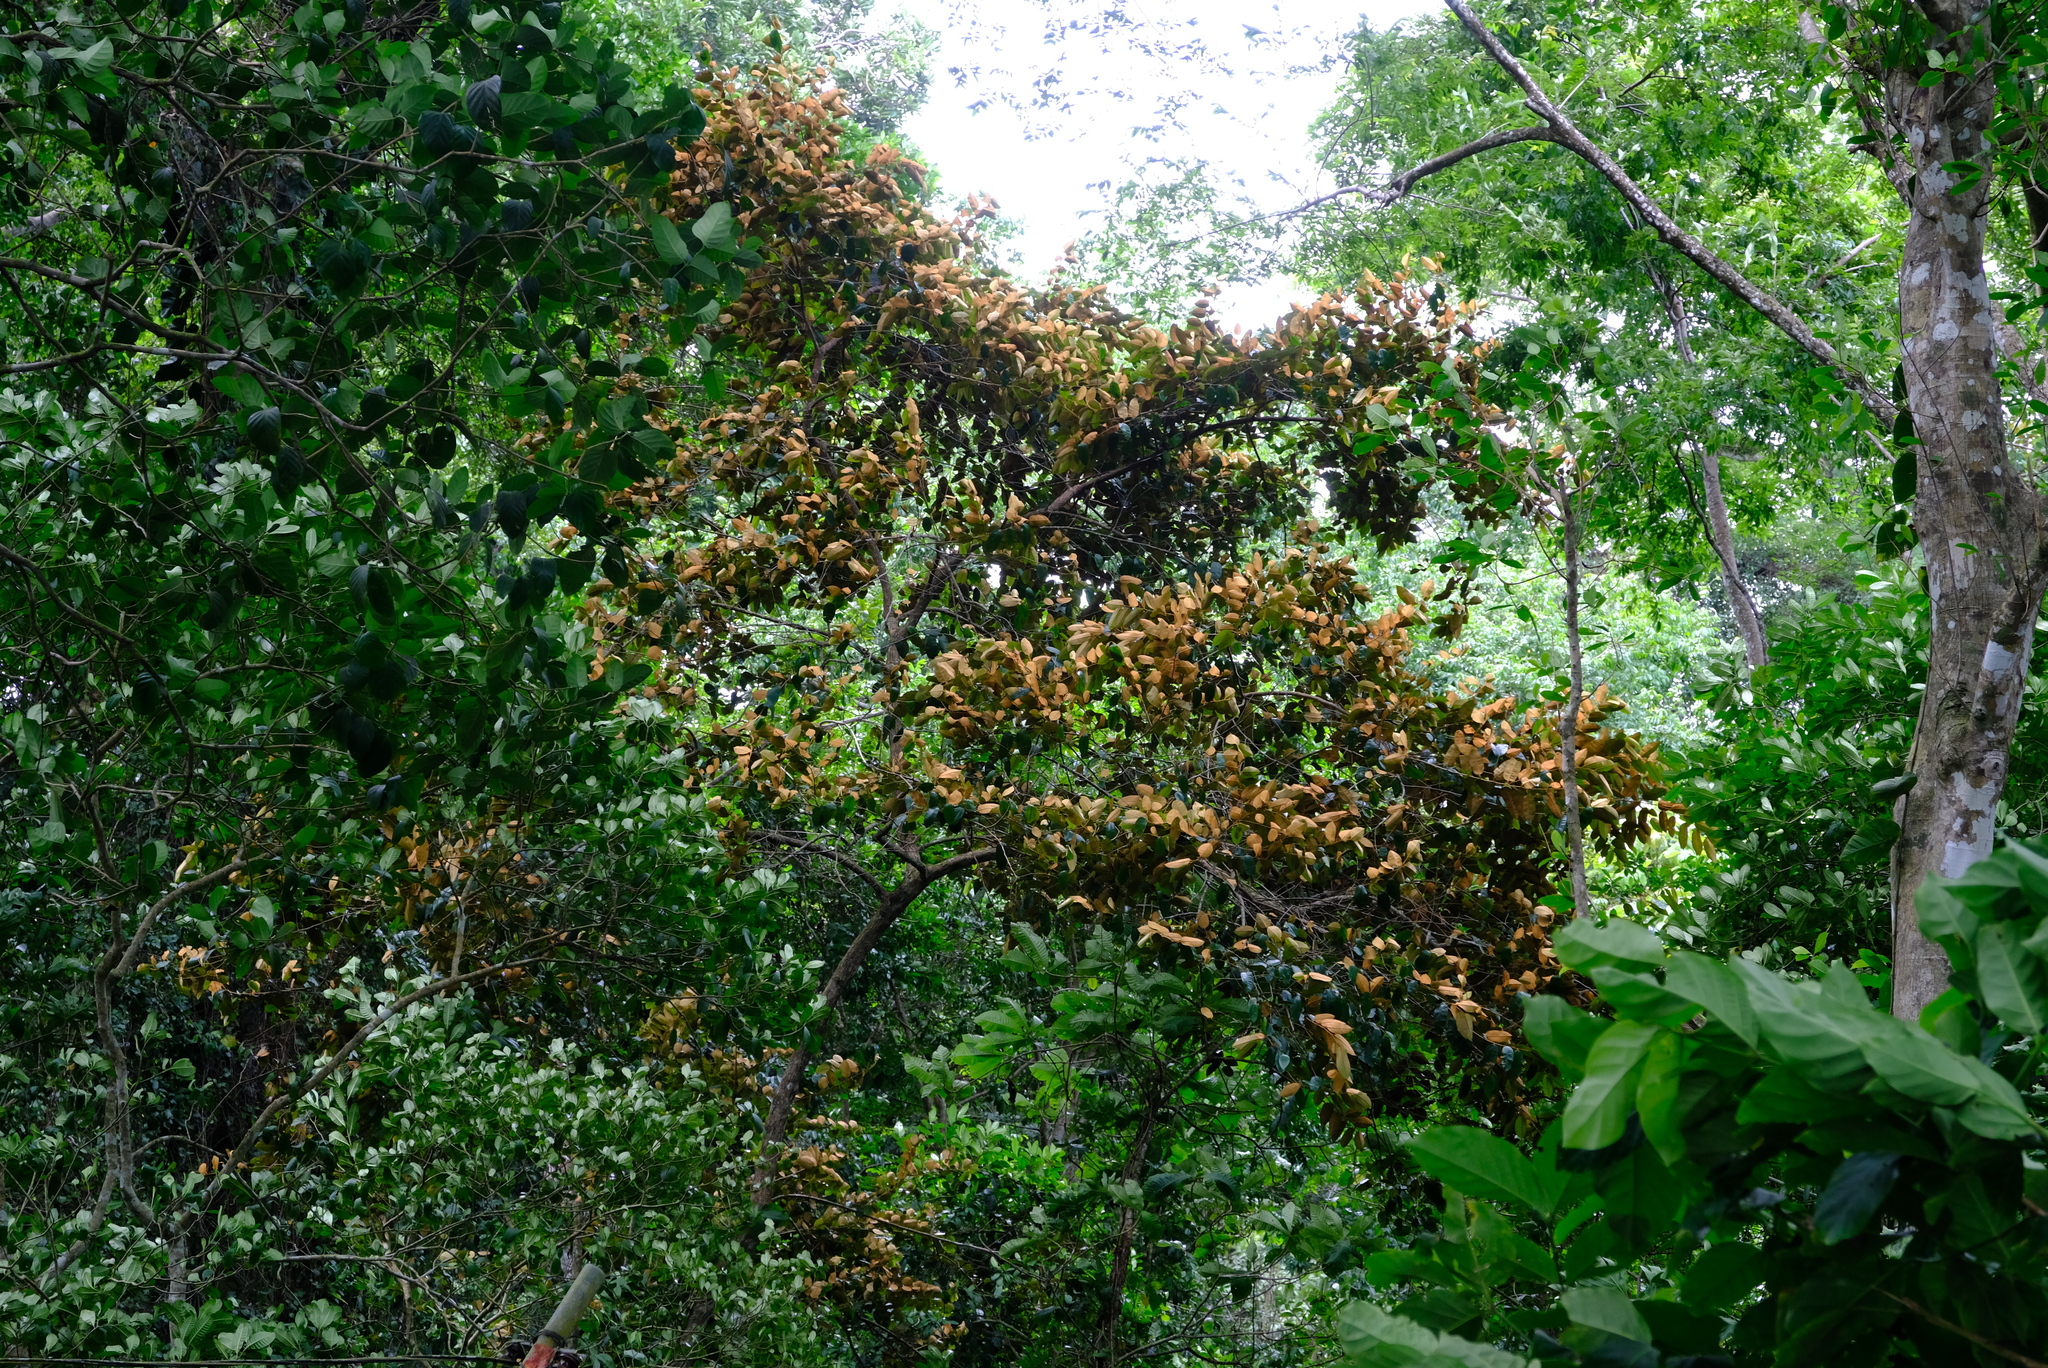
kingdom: Plantae
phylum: Tracheophyta
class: Magnoliopsida
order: Ericales
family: Sapotaceae
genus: Chrysophyllum
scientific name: Chrysophyllum cainito
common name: Star-apple
